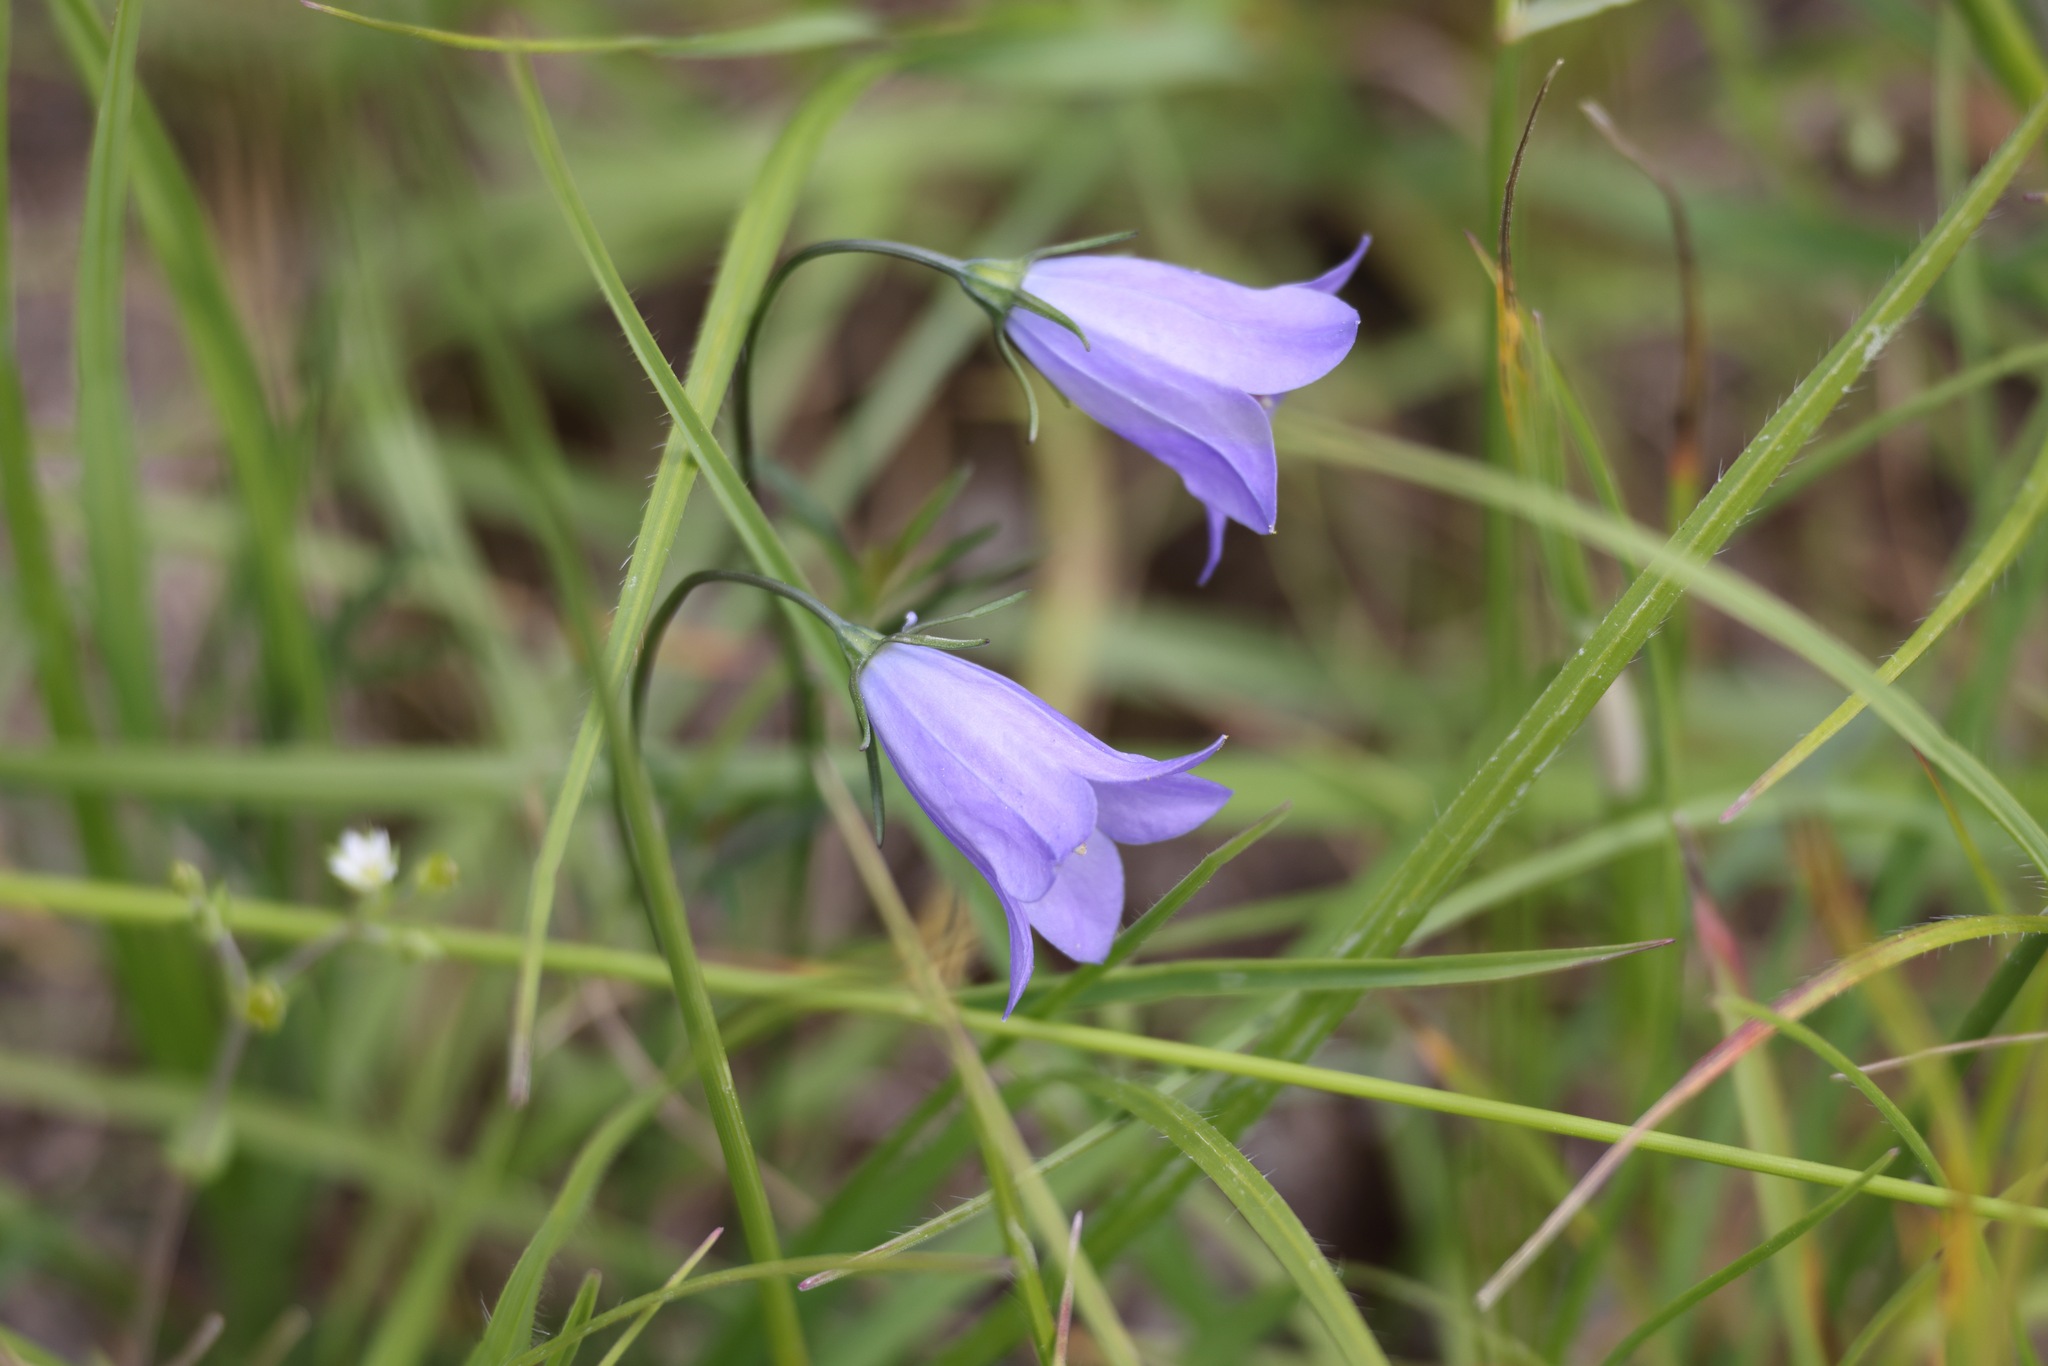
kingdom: Plantae
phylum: Tracheophyta
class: Magnoliopsida
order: Asterales
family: Campanulaceae
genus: Campanula
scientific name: Campanula rotundifolia
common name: Harebell
